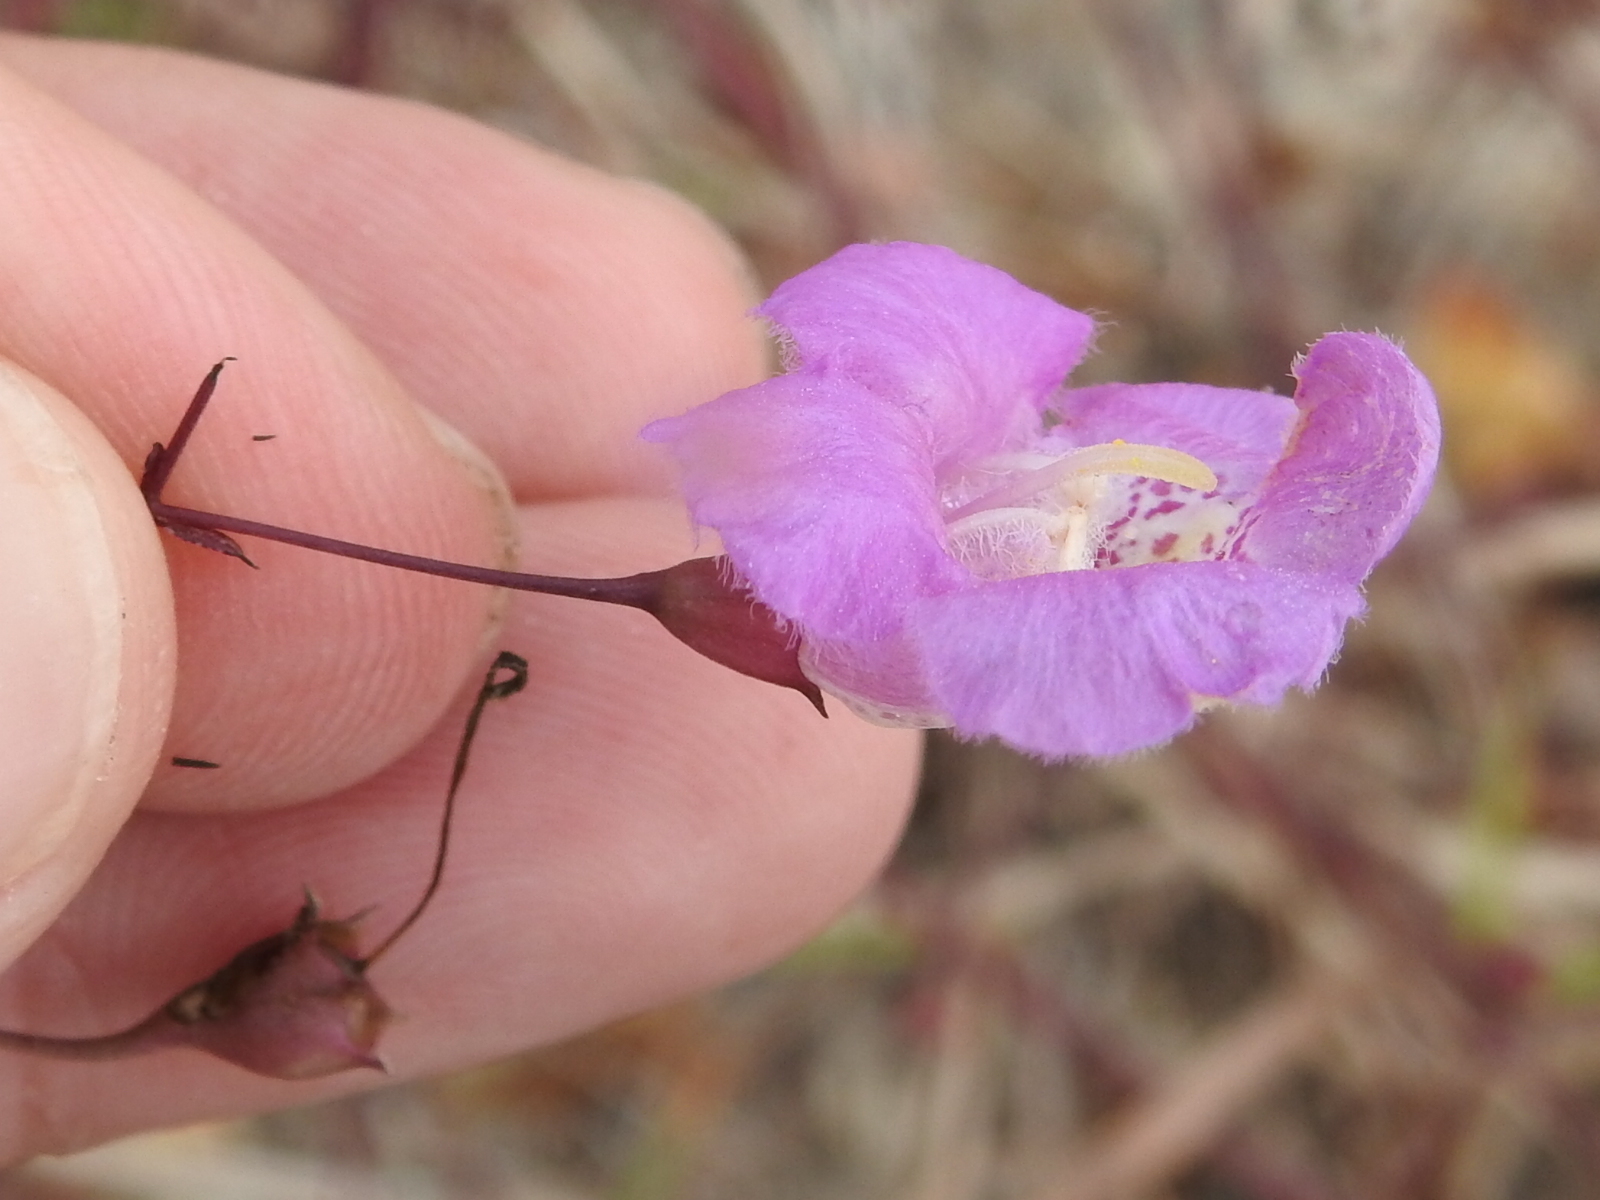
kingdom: Plantae
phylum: Tracheophyta
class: Magnoliopsida
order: Lamiales
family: Orobanchaceae
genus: Agalinis
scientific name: Agalinis strictifolia
